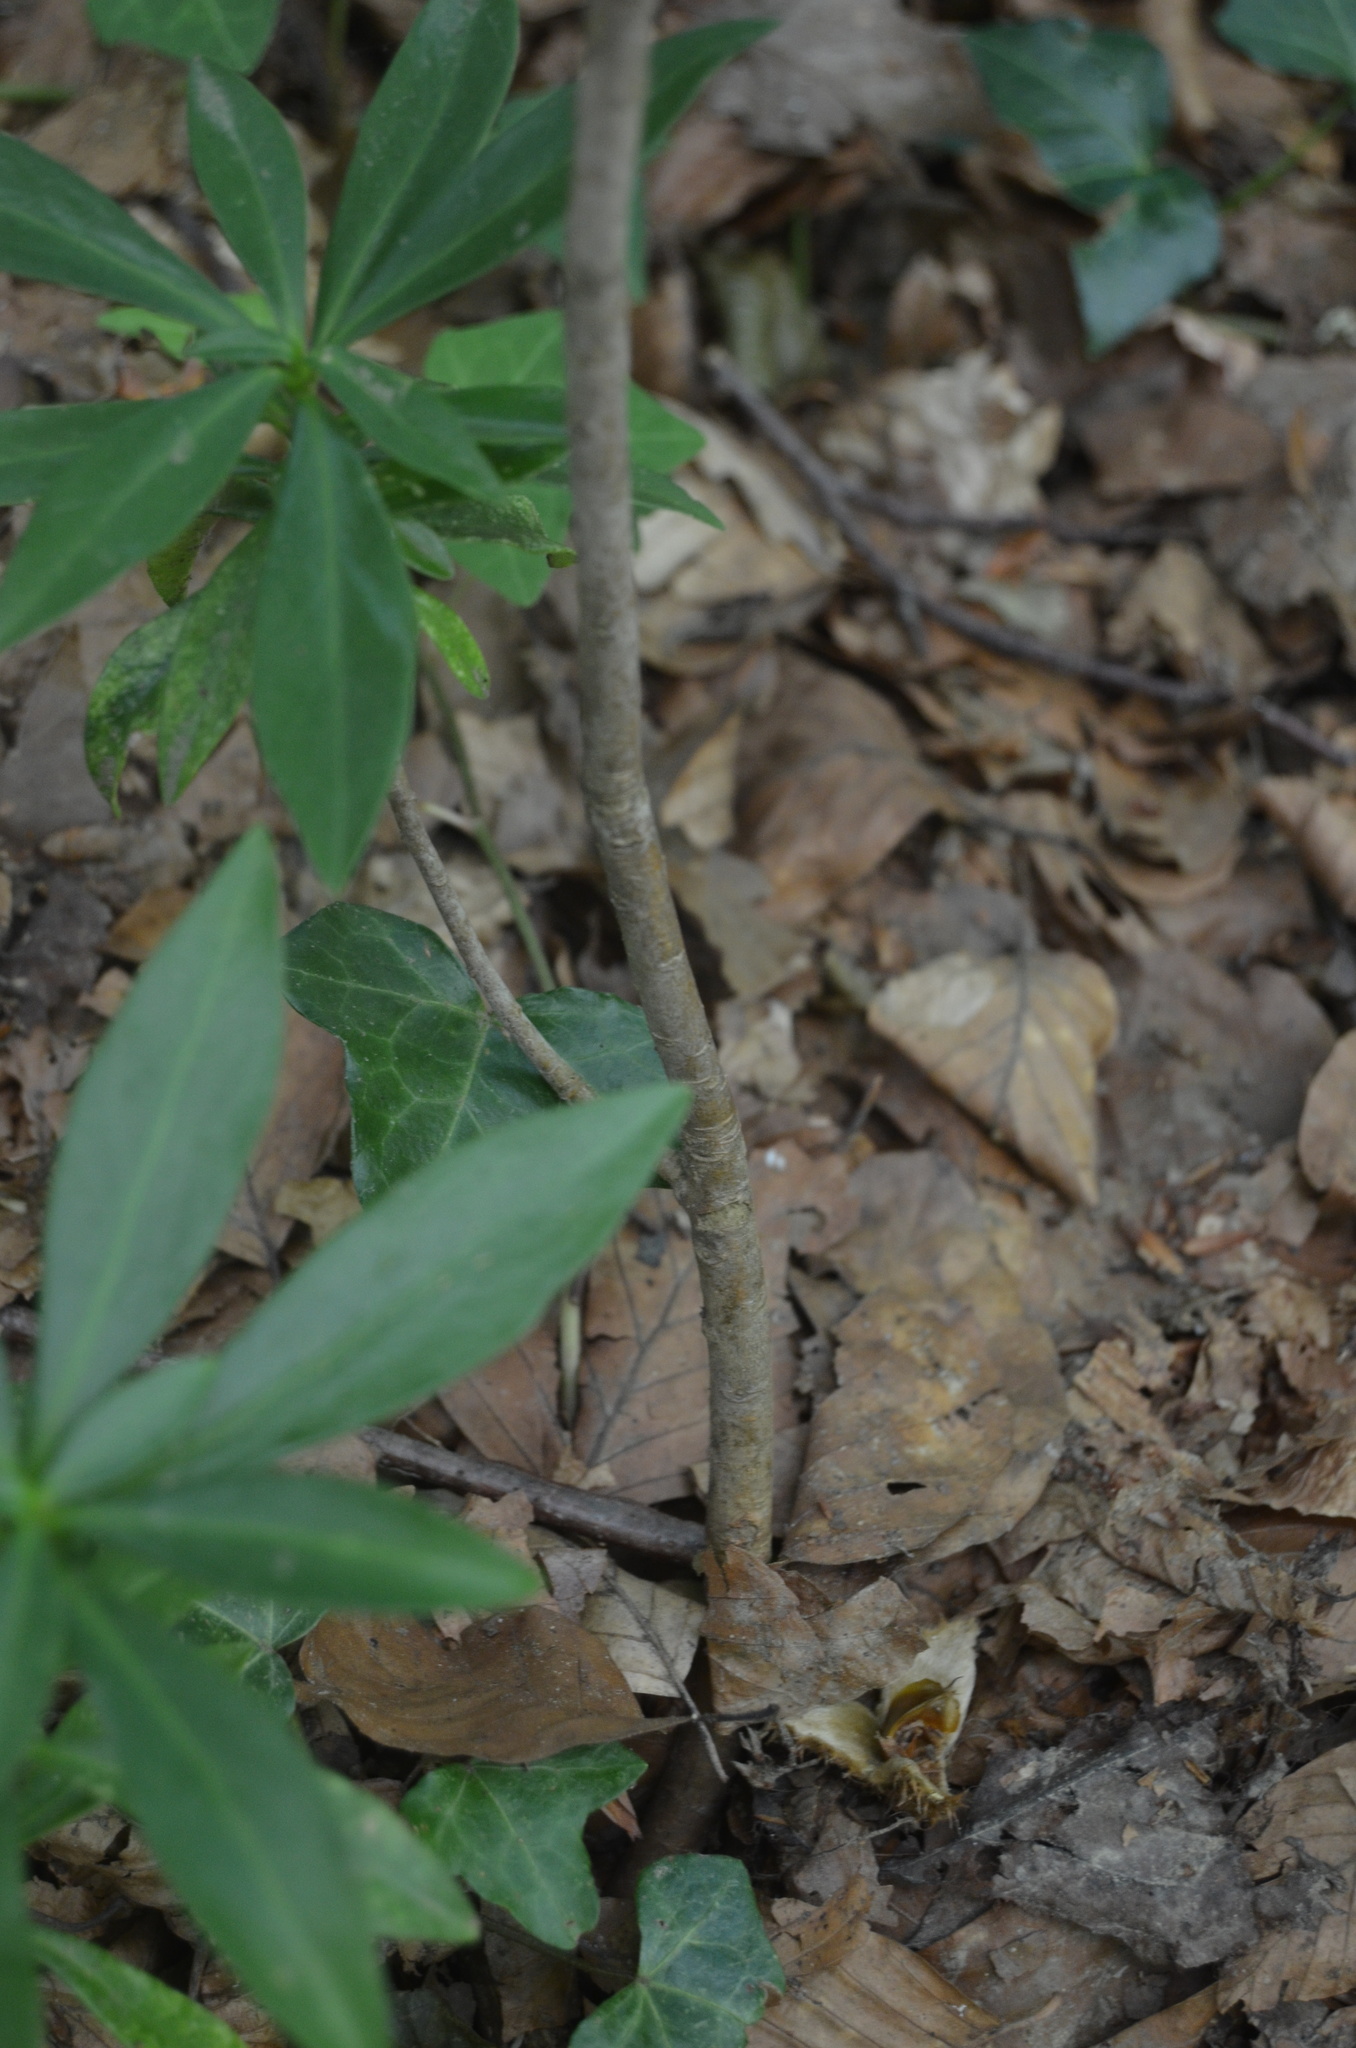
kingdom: Plantae
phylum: Tracheophyta
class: Magnoliopsida
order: Malvales
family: Thymelaeaceae
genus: Daphne
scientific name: Daphne laureola
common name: Spurge-laurel
